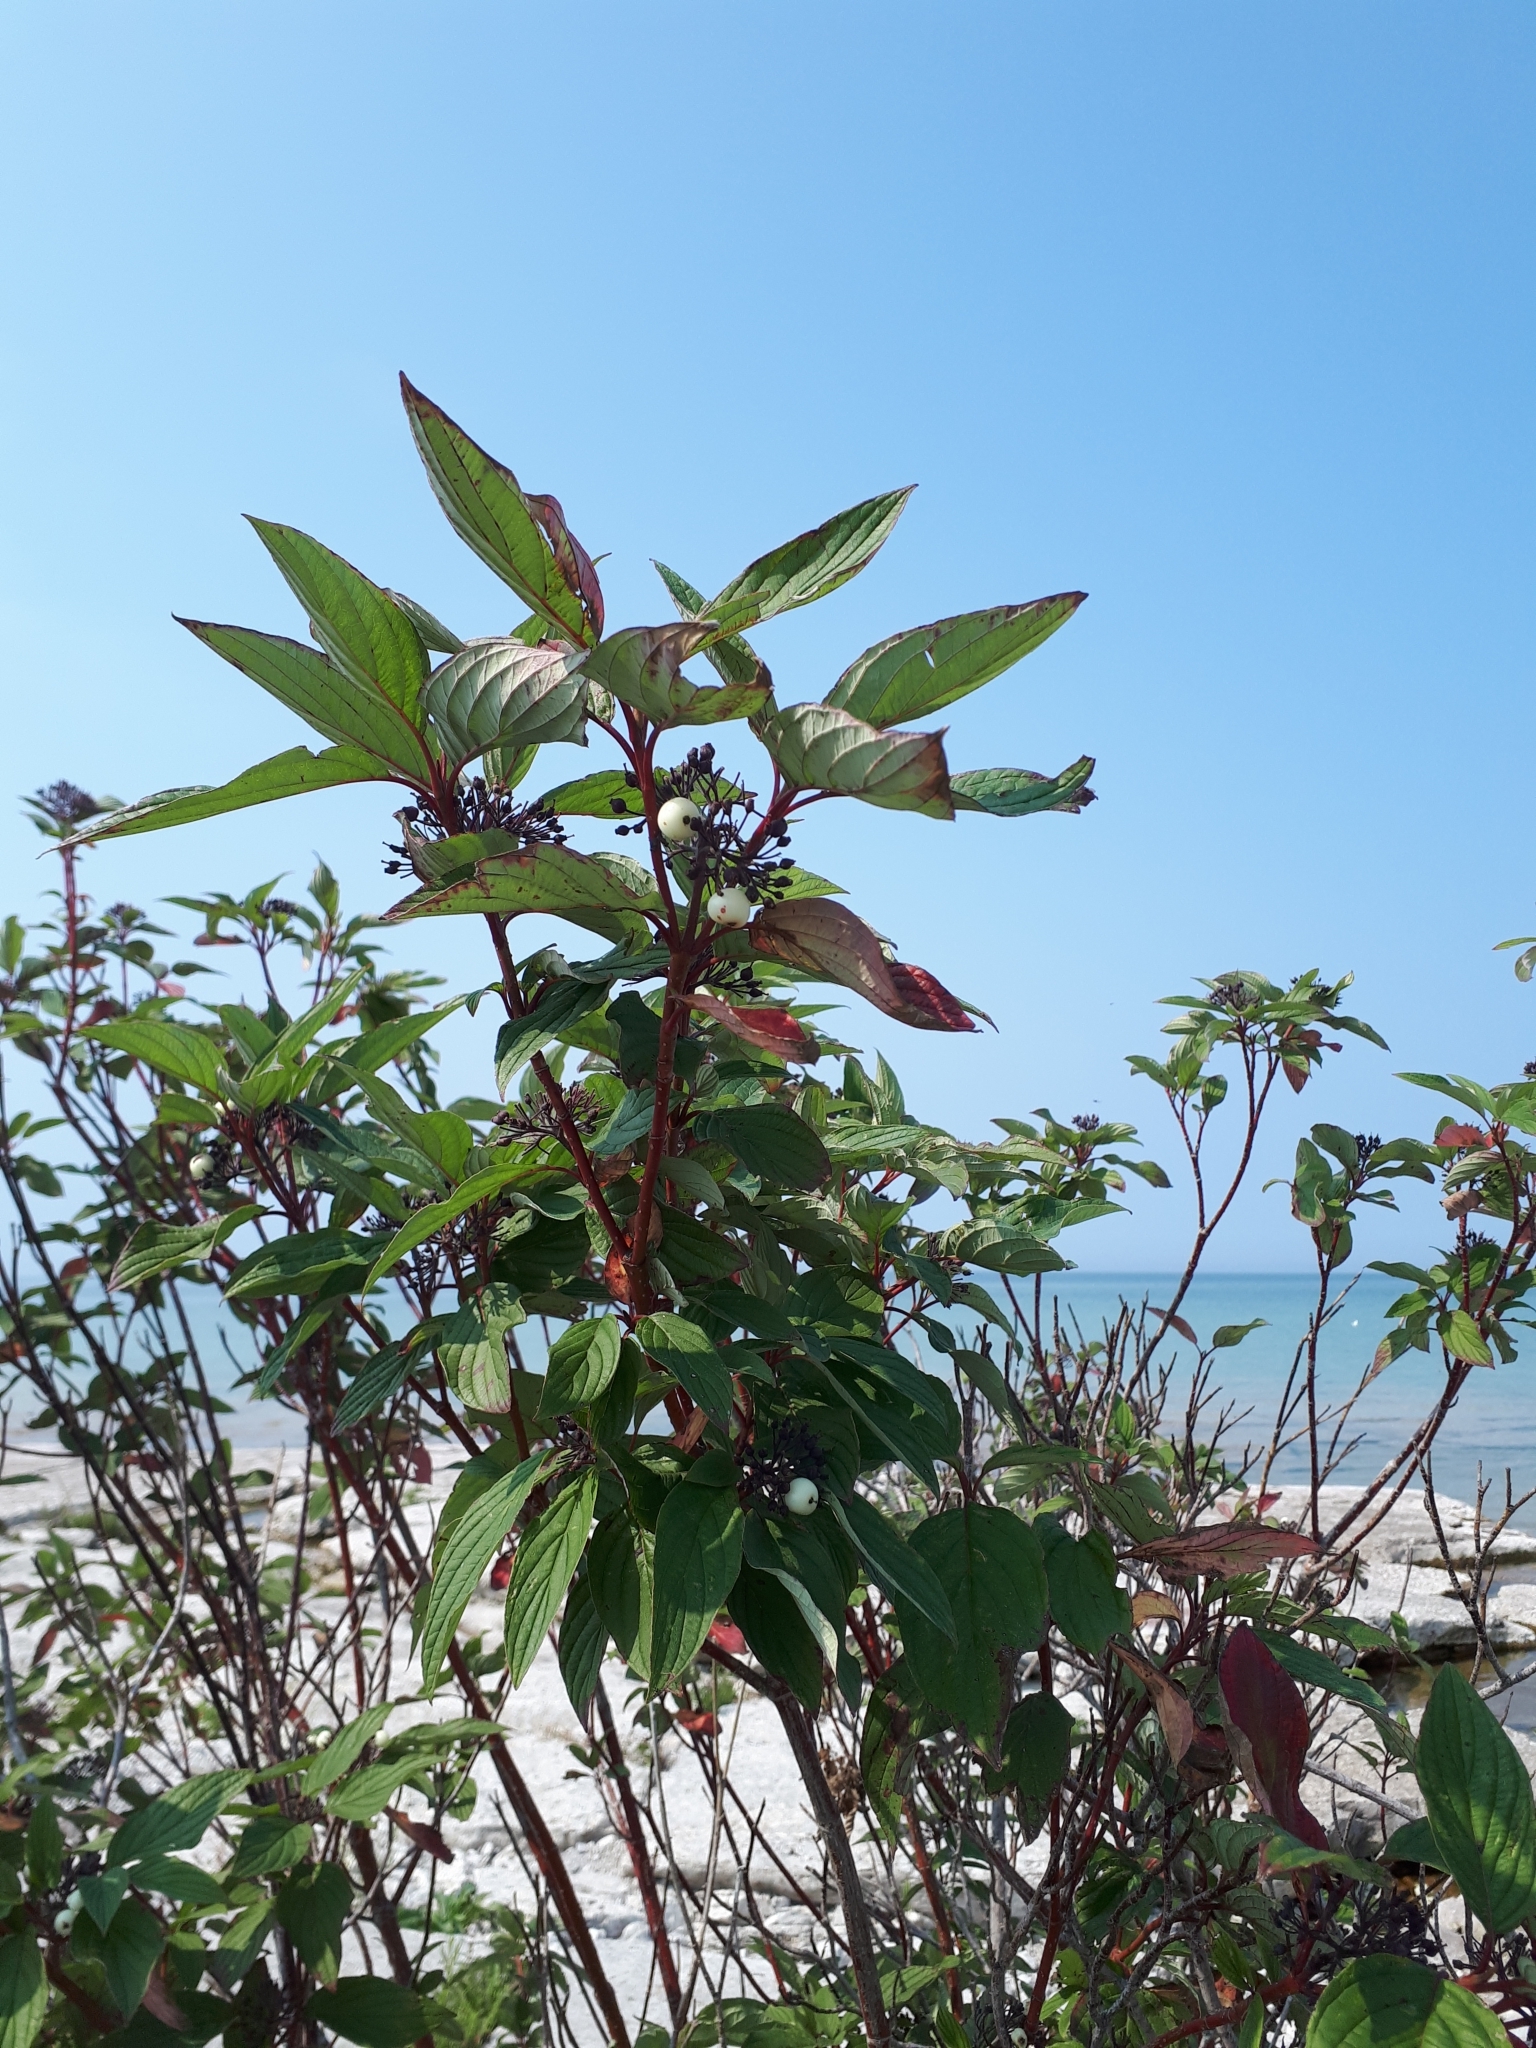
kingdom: Plantae
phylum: Tracheophyta
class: Magnoliopsida
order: Cornales
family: Cornaceae
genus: Cornus
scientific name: Cornus sericea
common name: Red-osier dogwood
